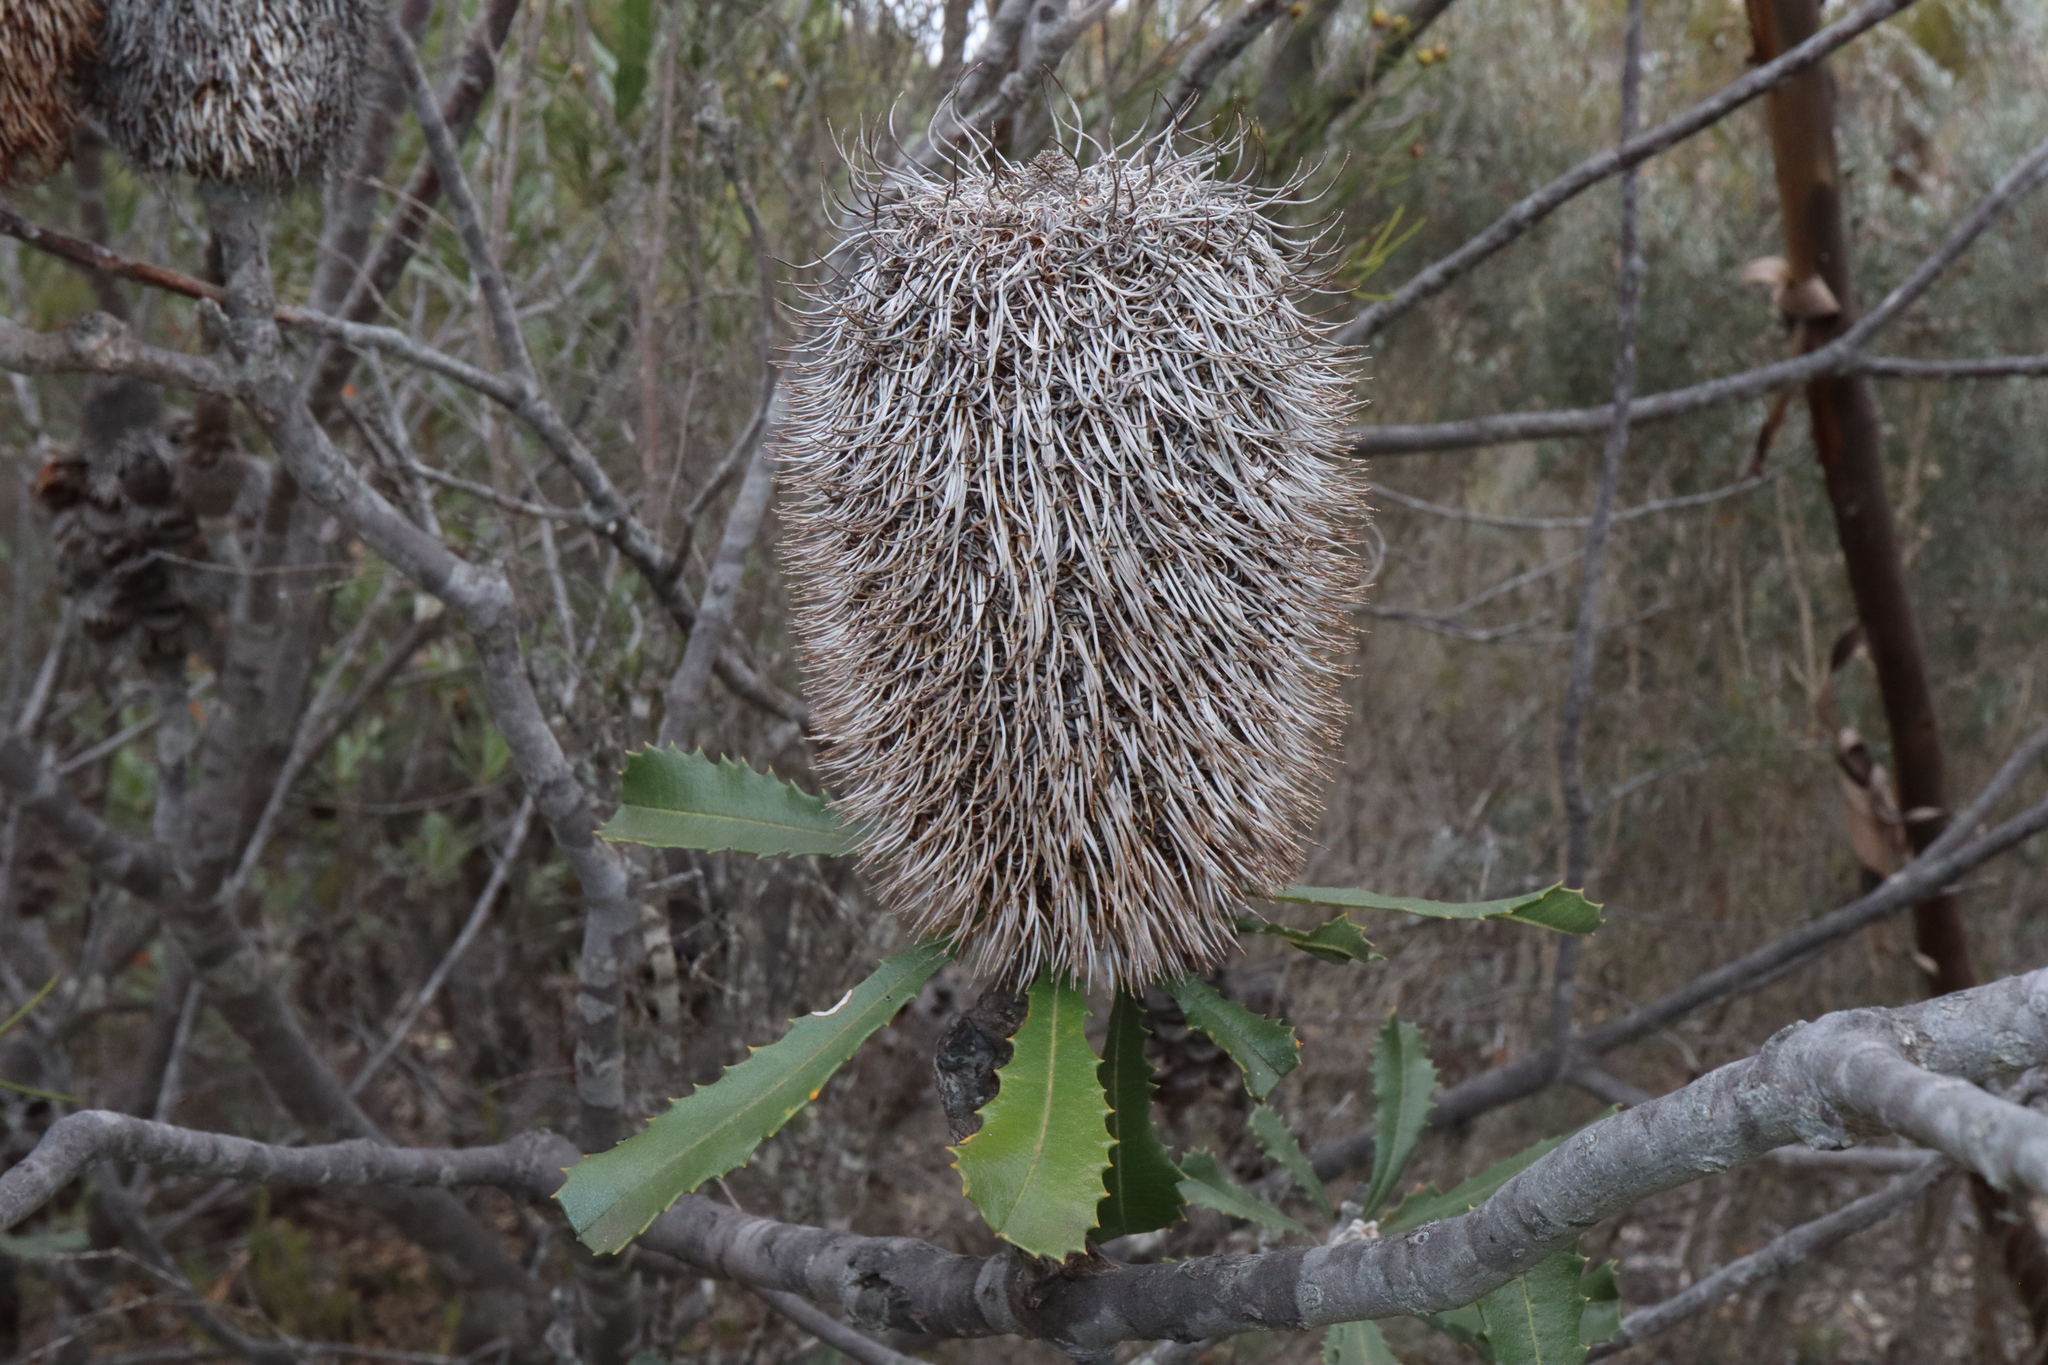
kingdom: Plantae
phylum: Tracheophyta
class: Magnoliopsida
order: Proteales
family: Proteaceae
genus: Banksia
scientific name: Banksia media
